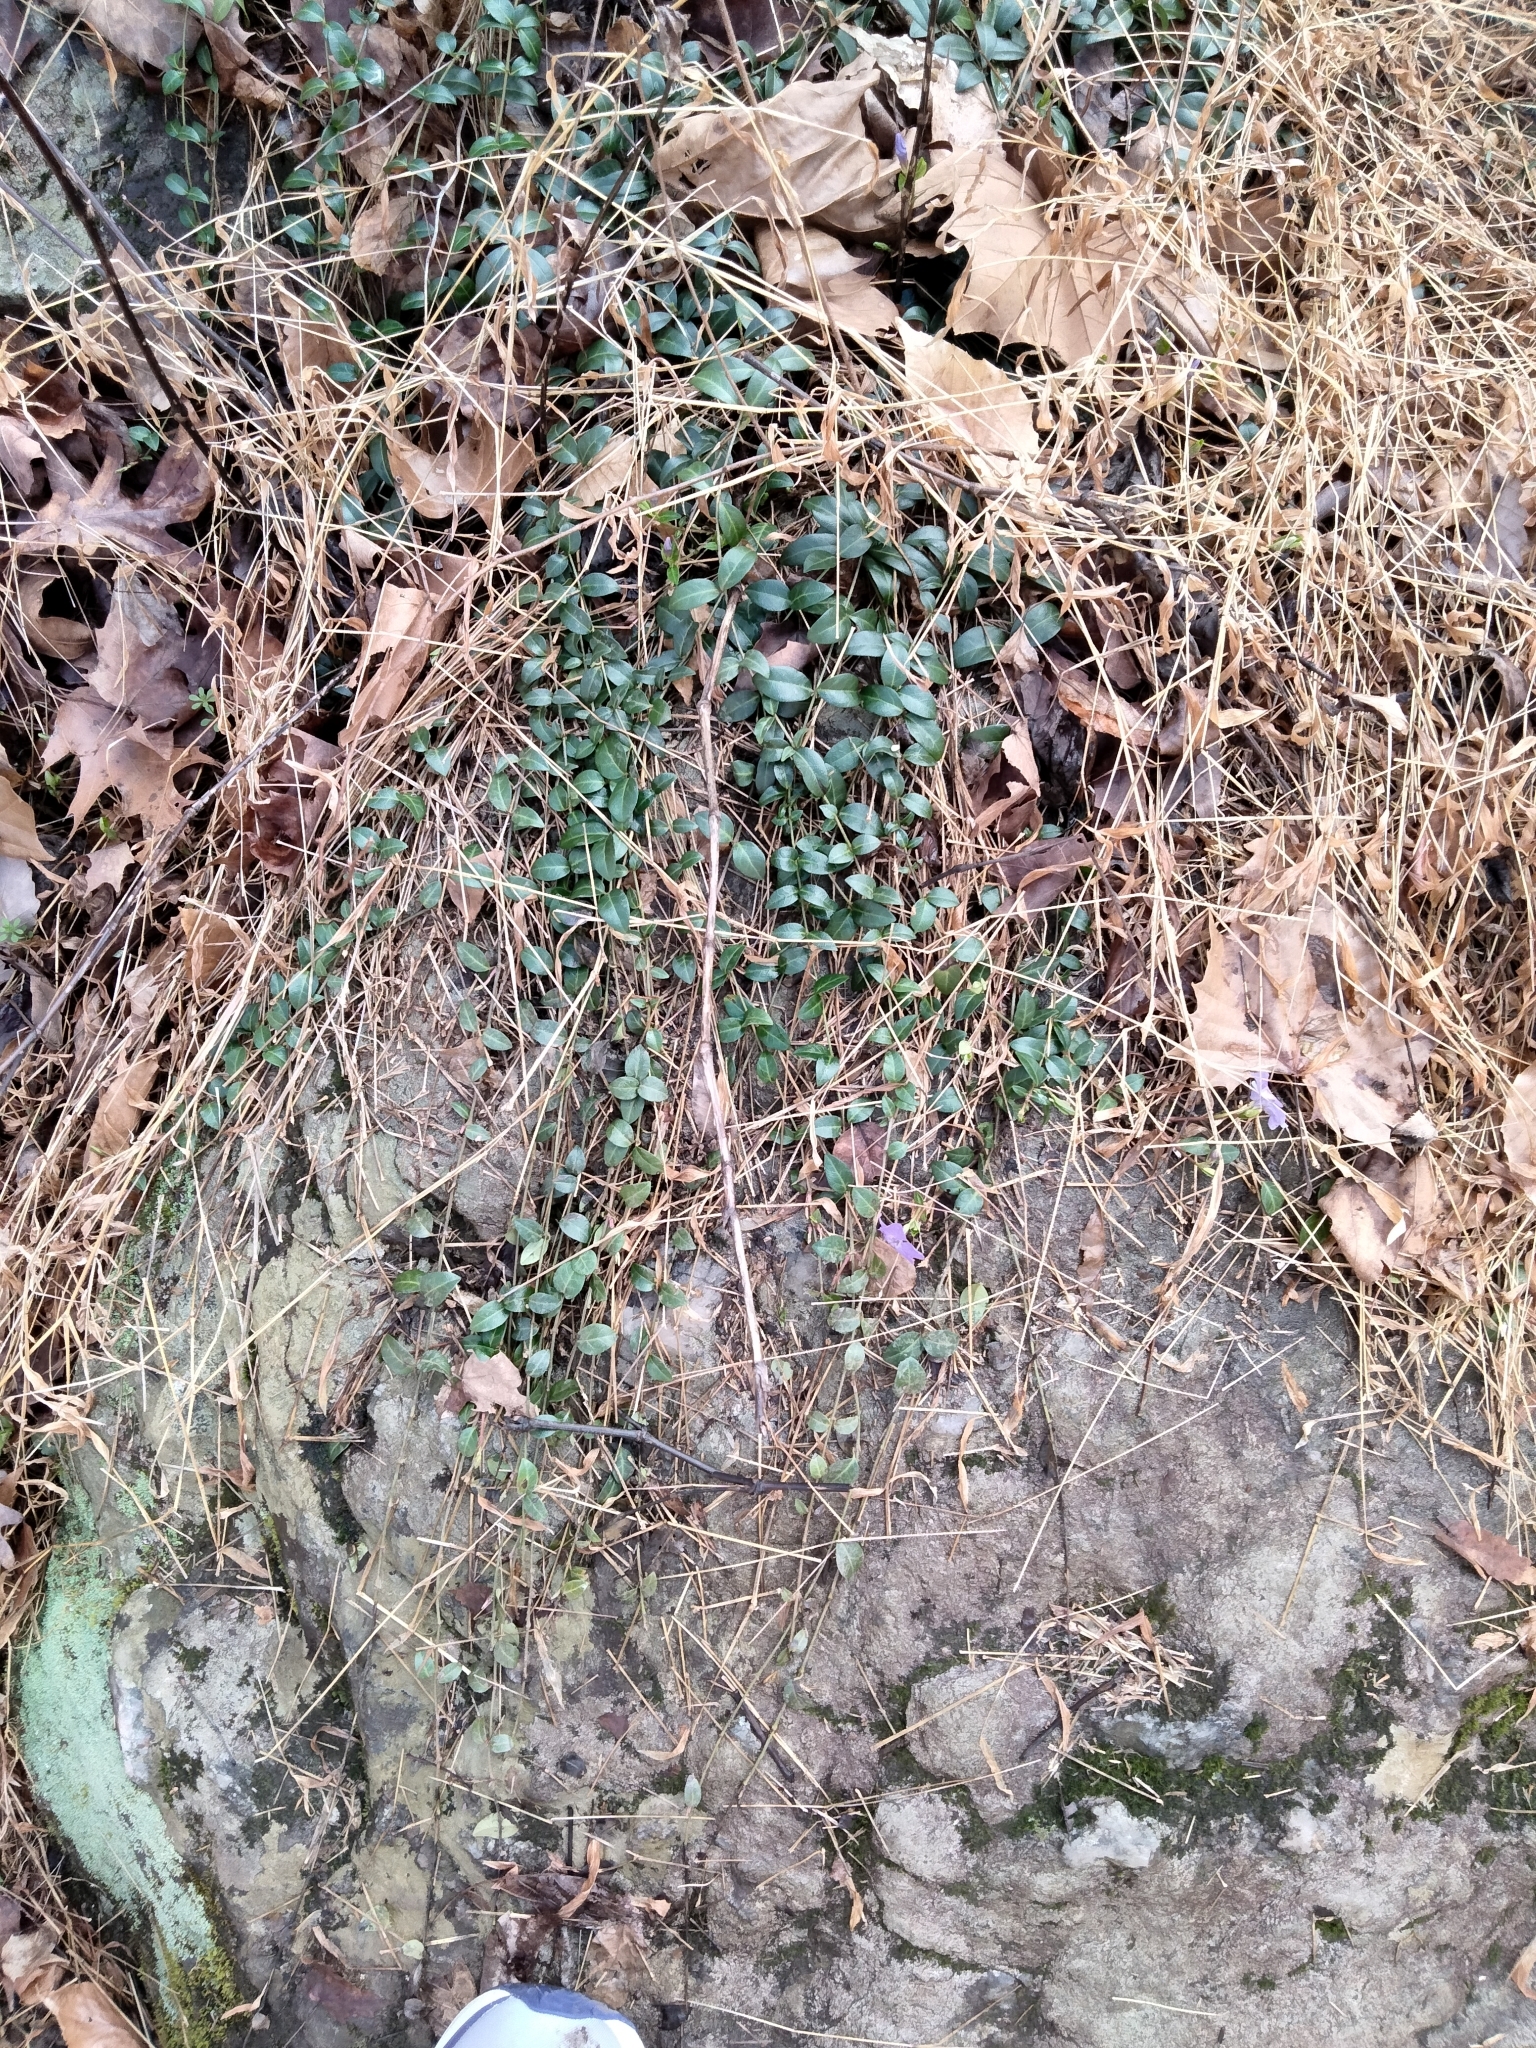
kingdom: Plantae
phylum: Tracheophyta
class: Magnoliopsida
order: Gentianales
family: Apocynaceae
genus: Vinca
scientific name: Vinca minor
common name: Lesser periwinkle
